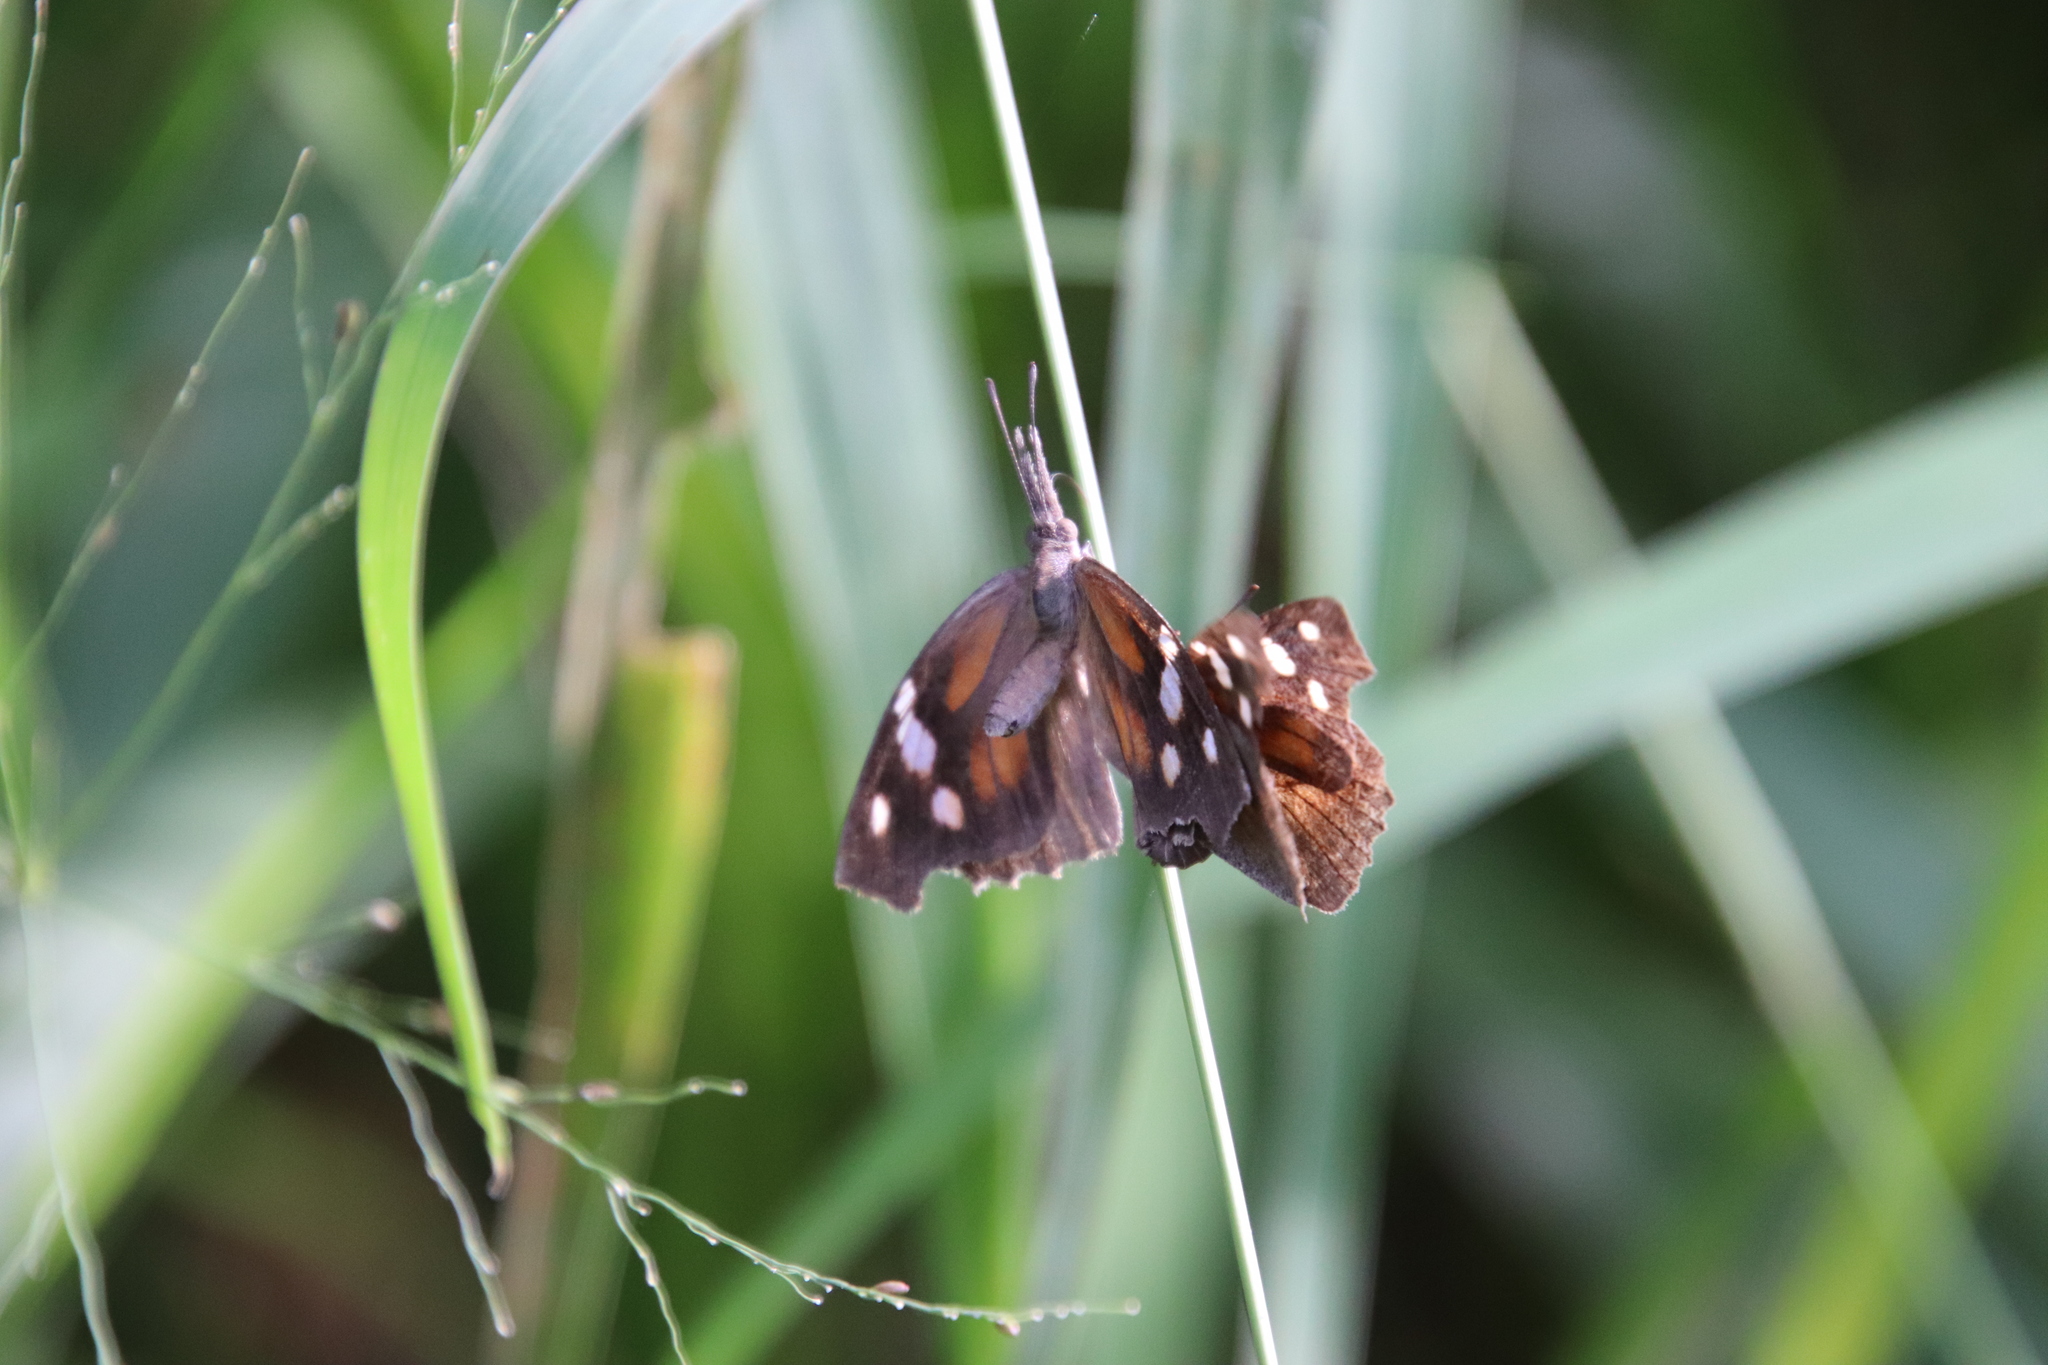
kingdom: Animalia
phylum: Arthropoda
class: Insecta
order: Lepidoptera
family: Nymphalidae
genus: Libytheana
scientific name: Libytheana carinenta
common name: American snout
